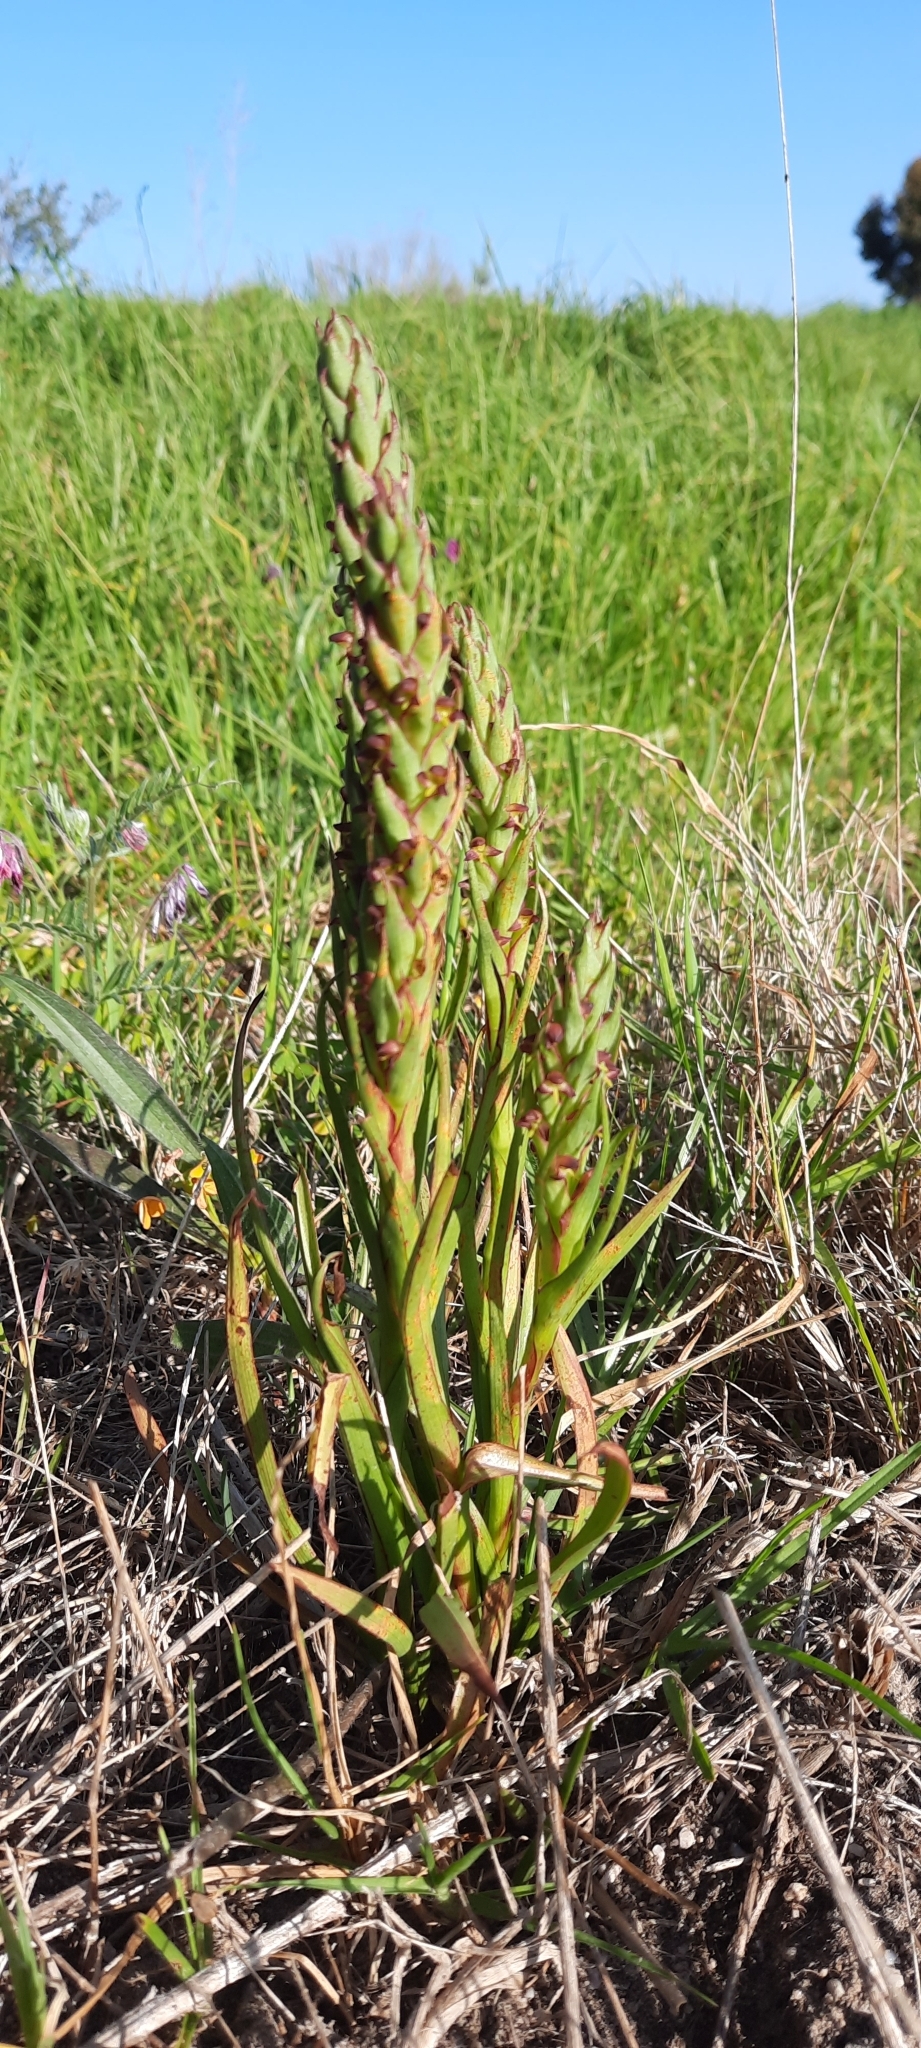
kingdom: Plantae
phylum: Tracheophyta
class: Liliopsida
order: Asparagales
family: Orchidaceae
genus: Disa
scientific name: Disa bracteata
